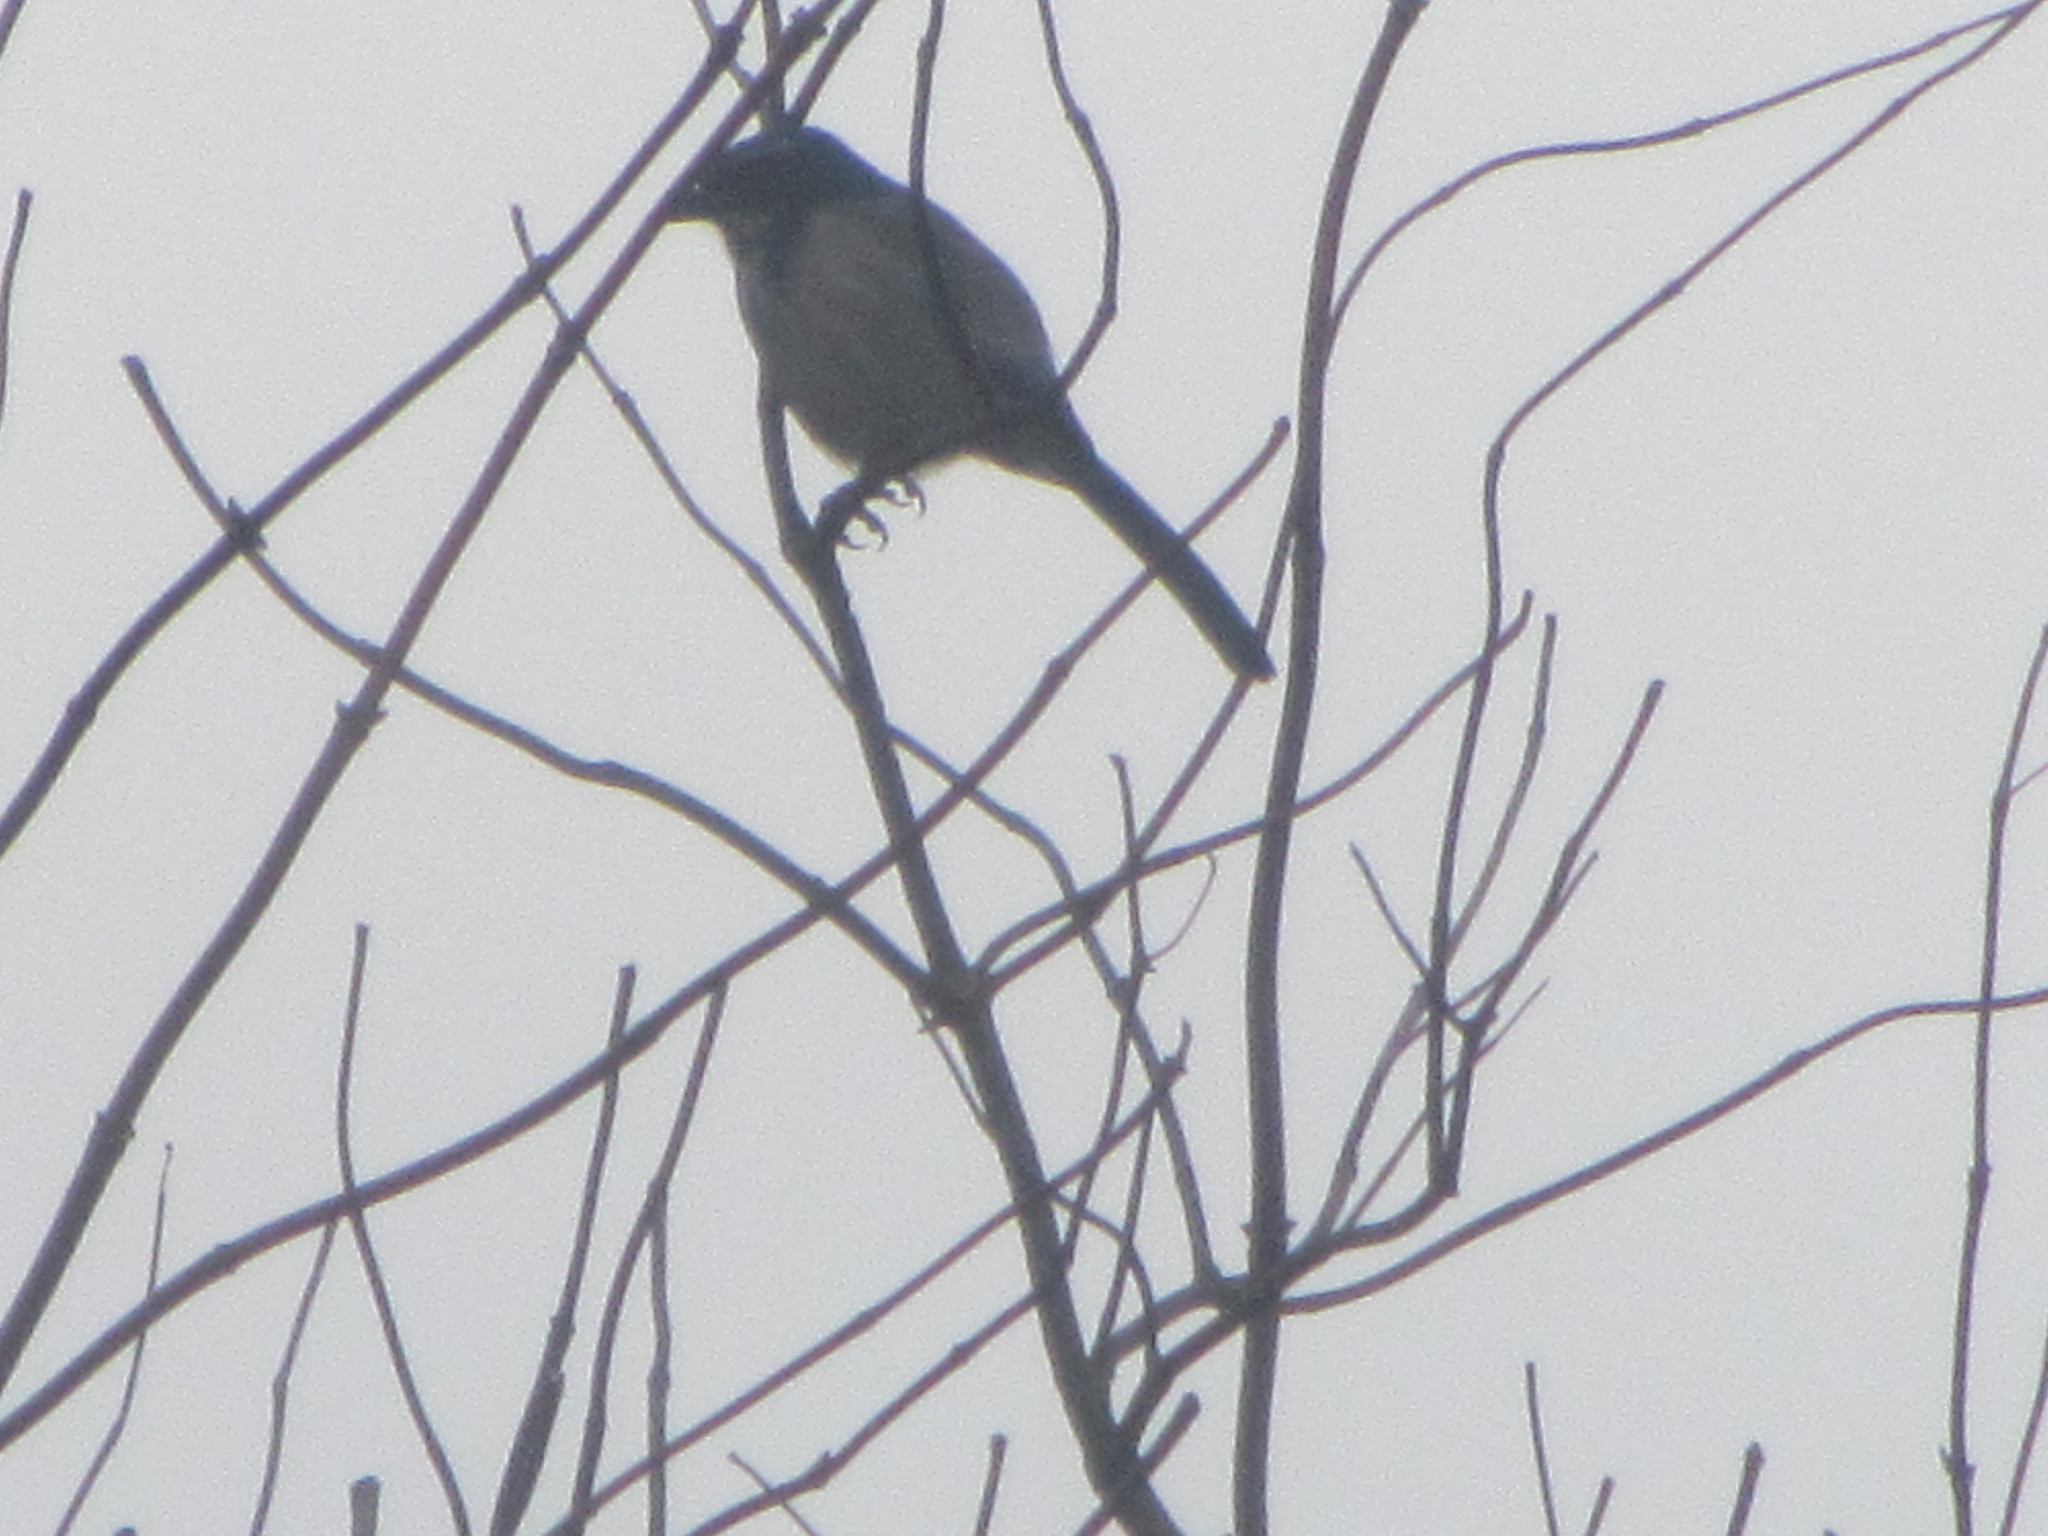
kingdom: Animalia
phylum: Chordata
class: Aves
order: Passeriformes
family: Corvidae
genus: Aphelocoma
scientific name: Aphelocoma californica
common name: California scrub-jay
